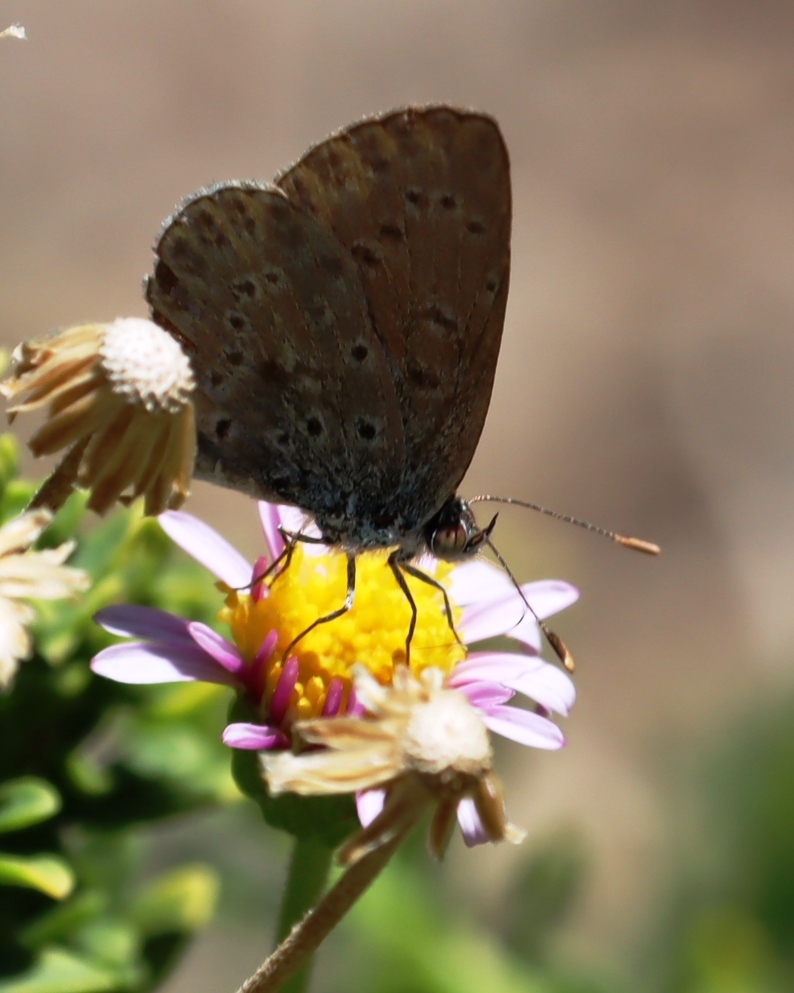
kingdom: Animalia
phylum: Arthropoda
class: Insecta
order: Lepidoptera
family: Lycaenidae
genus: Zizeeria
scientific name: Zizeeria knysna
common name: African grass blue
